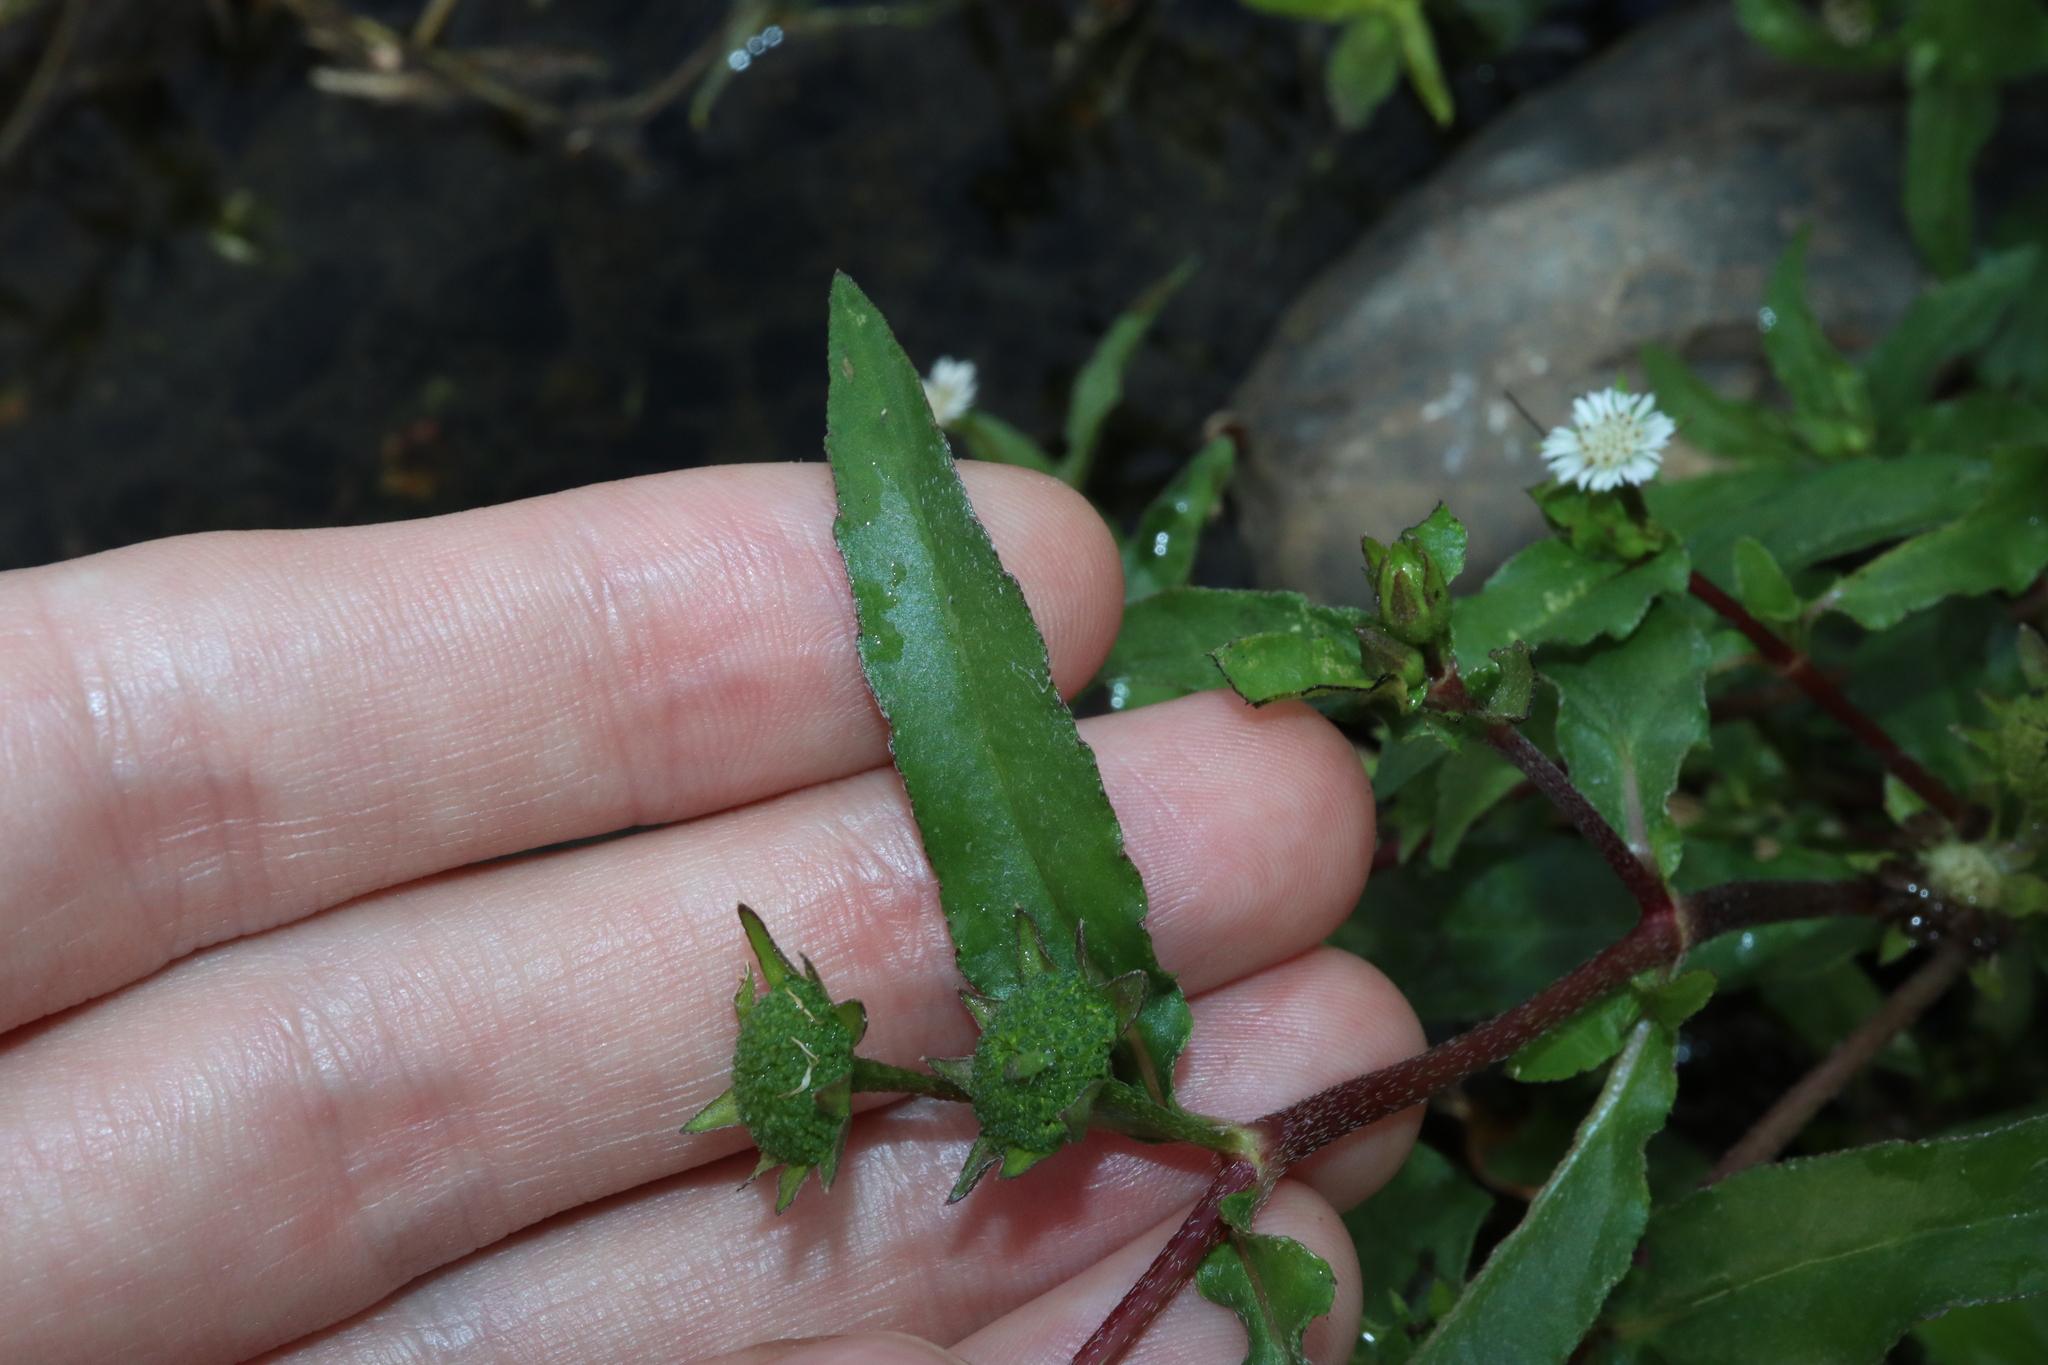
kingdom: Plantae
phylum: Tracheophyta
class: Magnoliopsida
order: Asterales
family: Asteraceae
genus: Eclipta
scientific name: Eclipta prostrata
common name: False daisy
